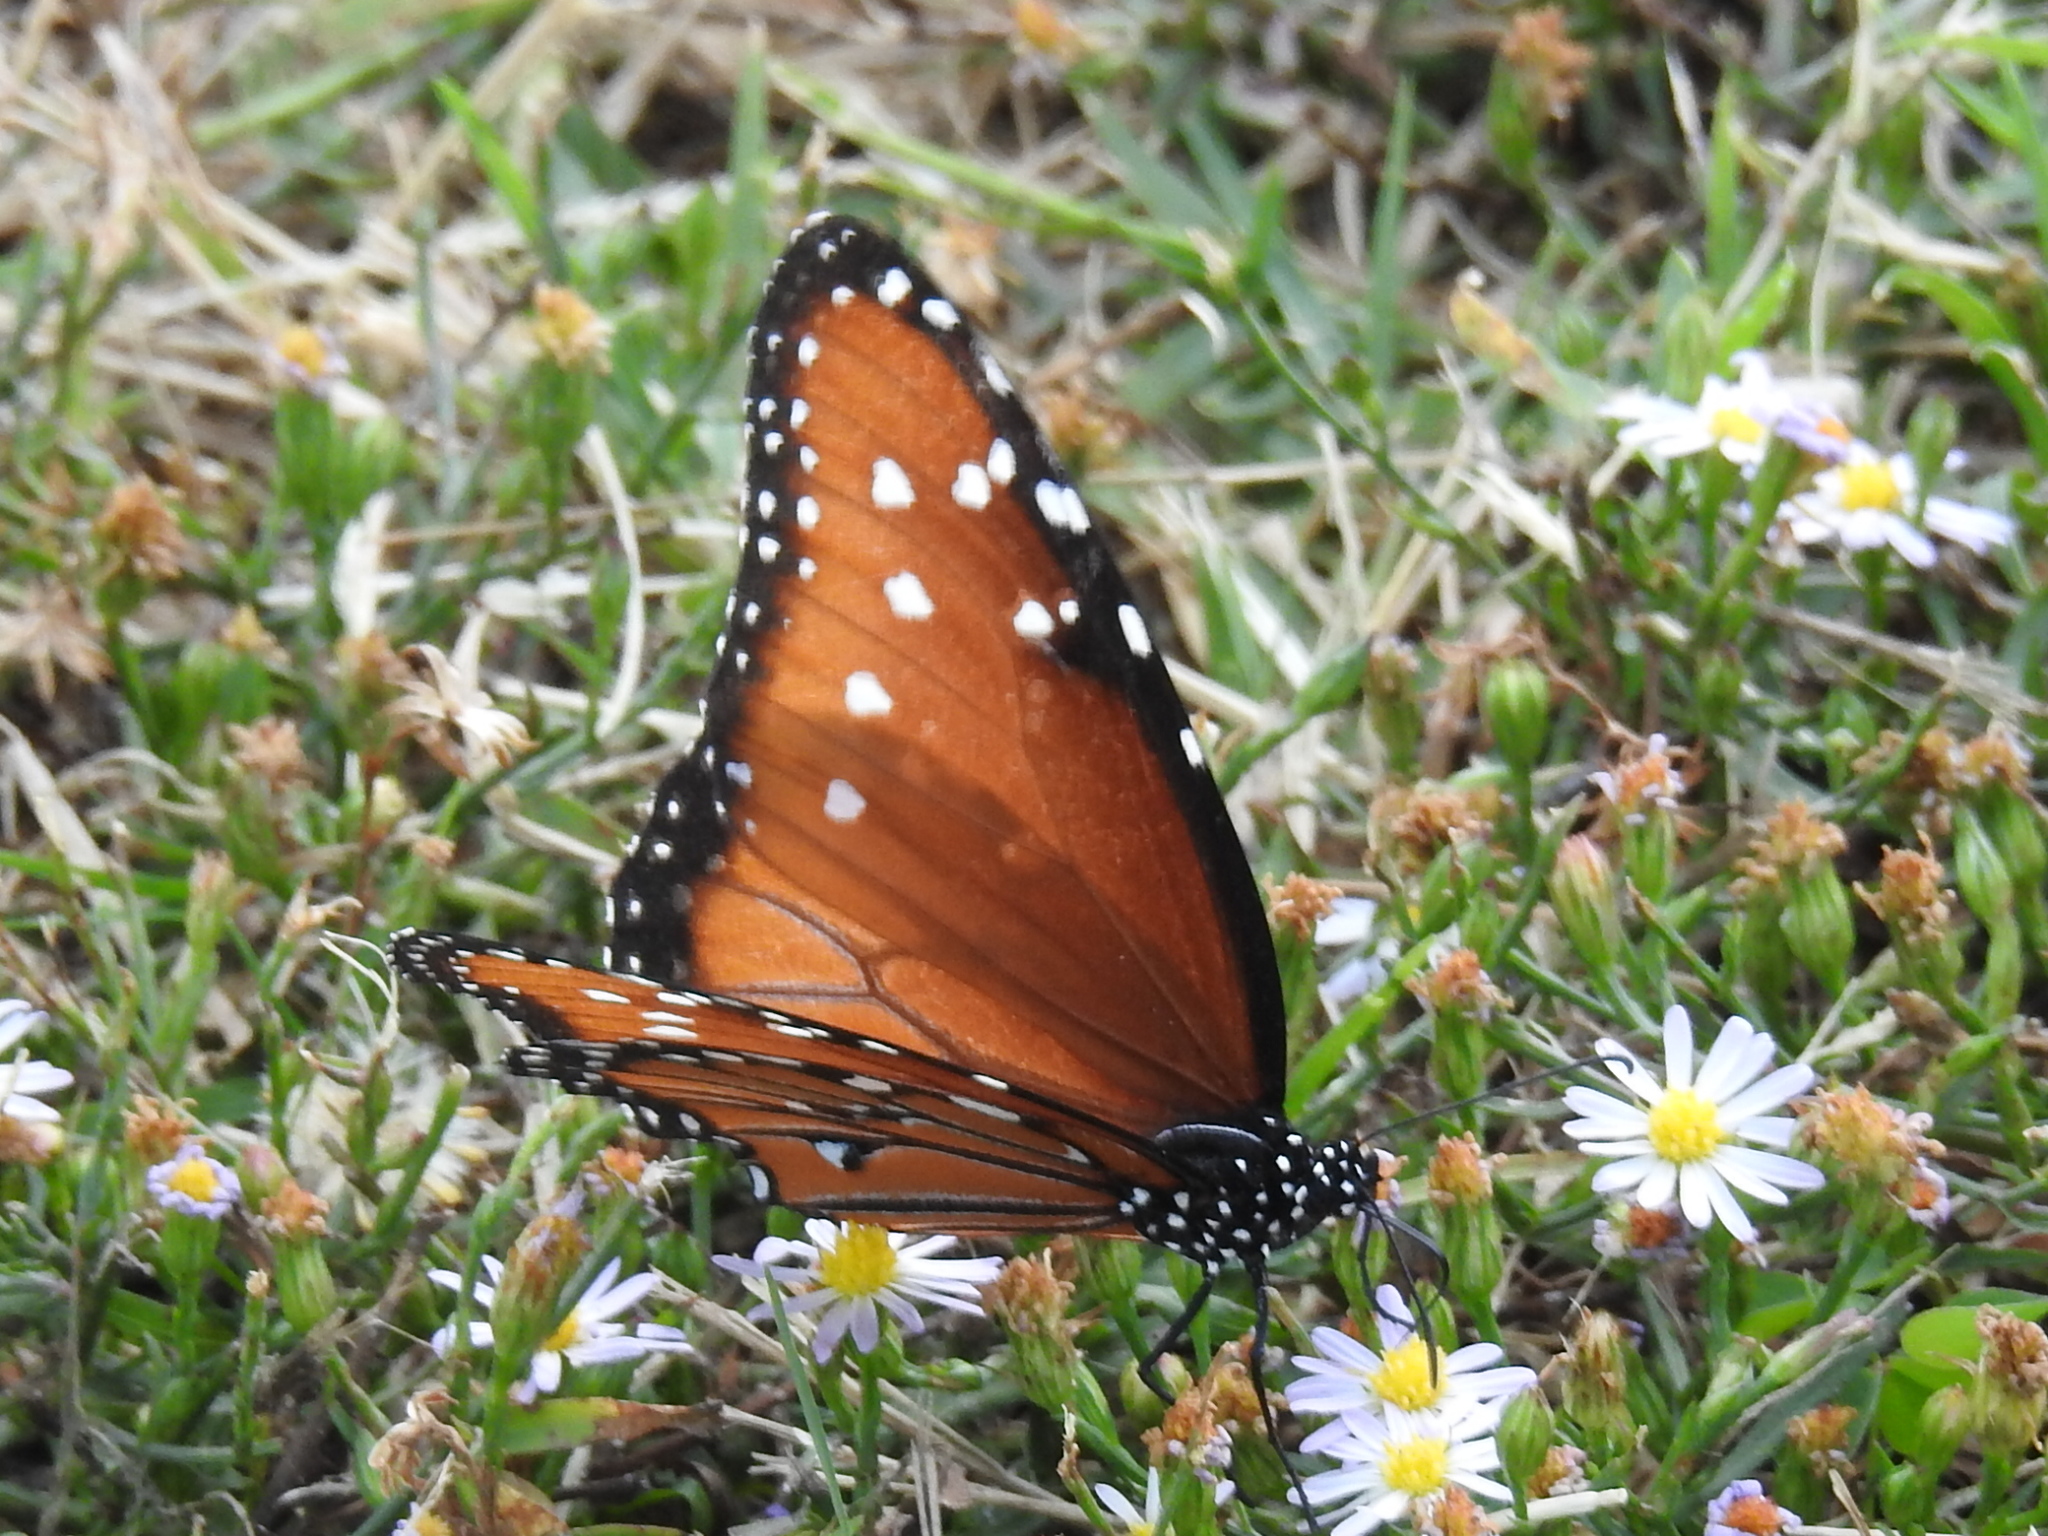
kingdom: Animalia
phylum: Arthropoda
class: Insecta
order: Lepidoptera
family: Nymphalidae
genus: Danaus
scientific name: Danaus gilippus
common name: Queen
